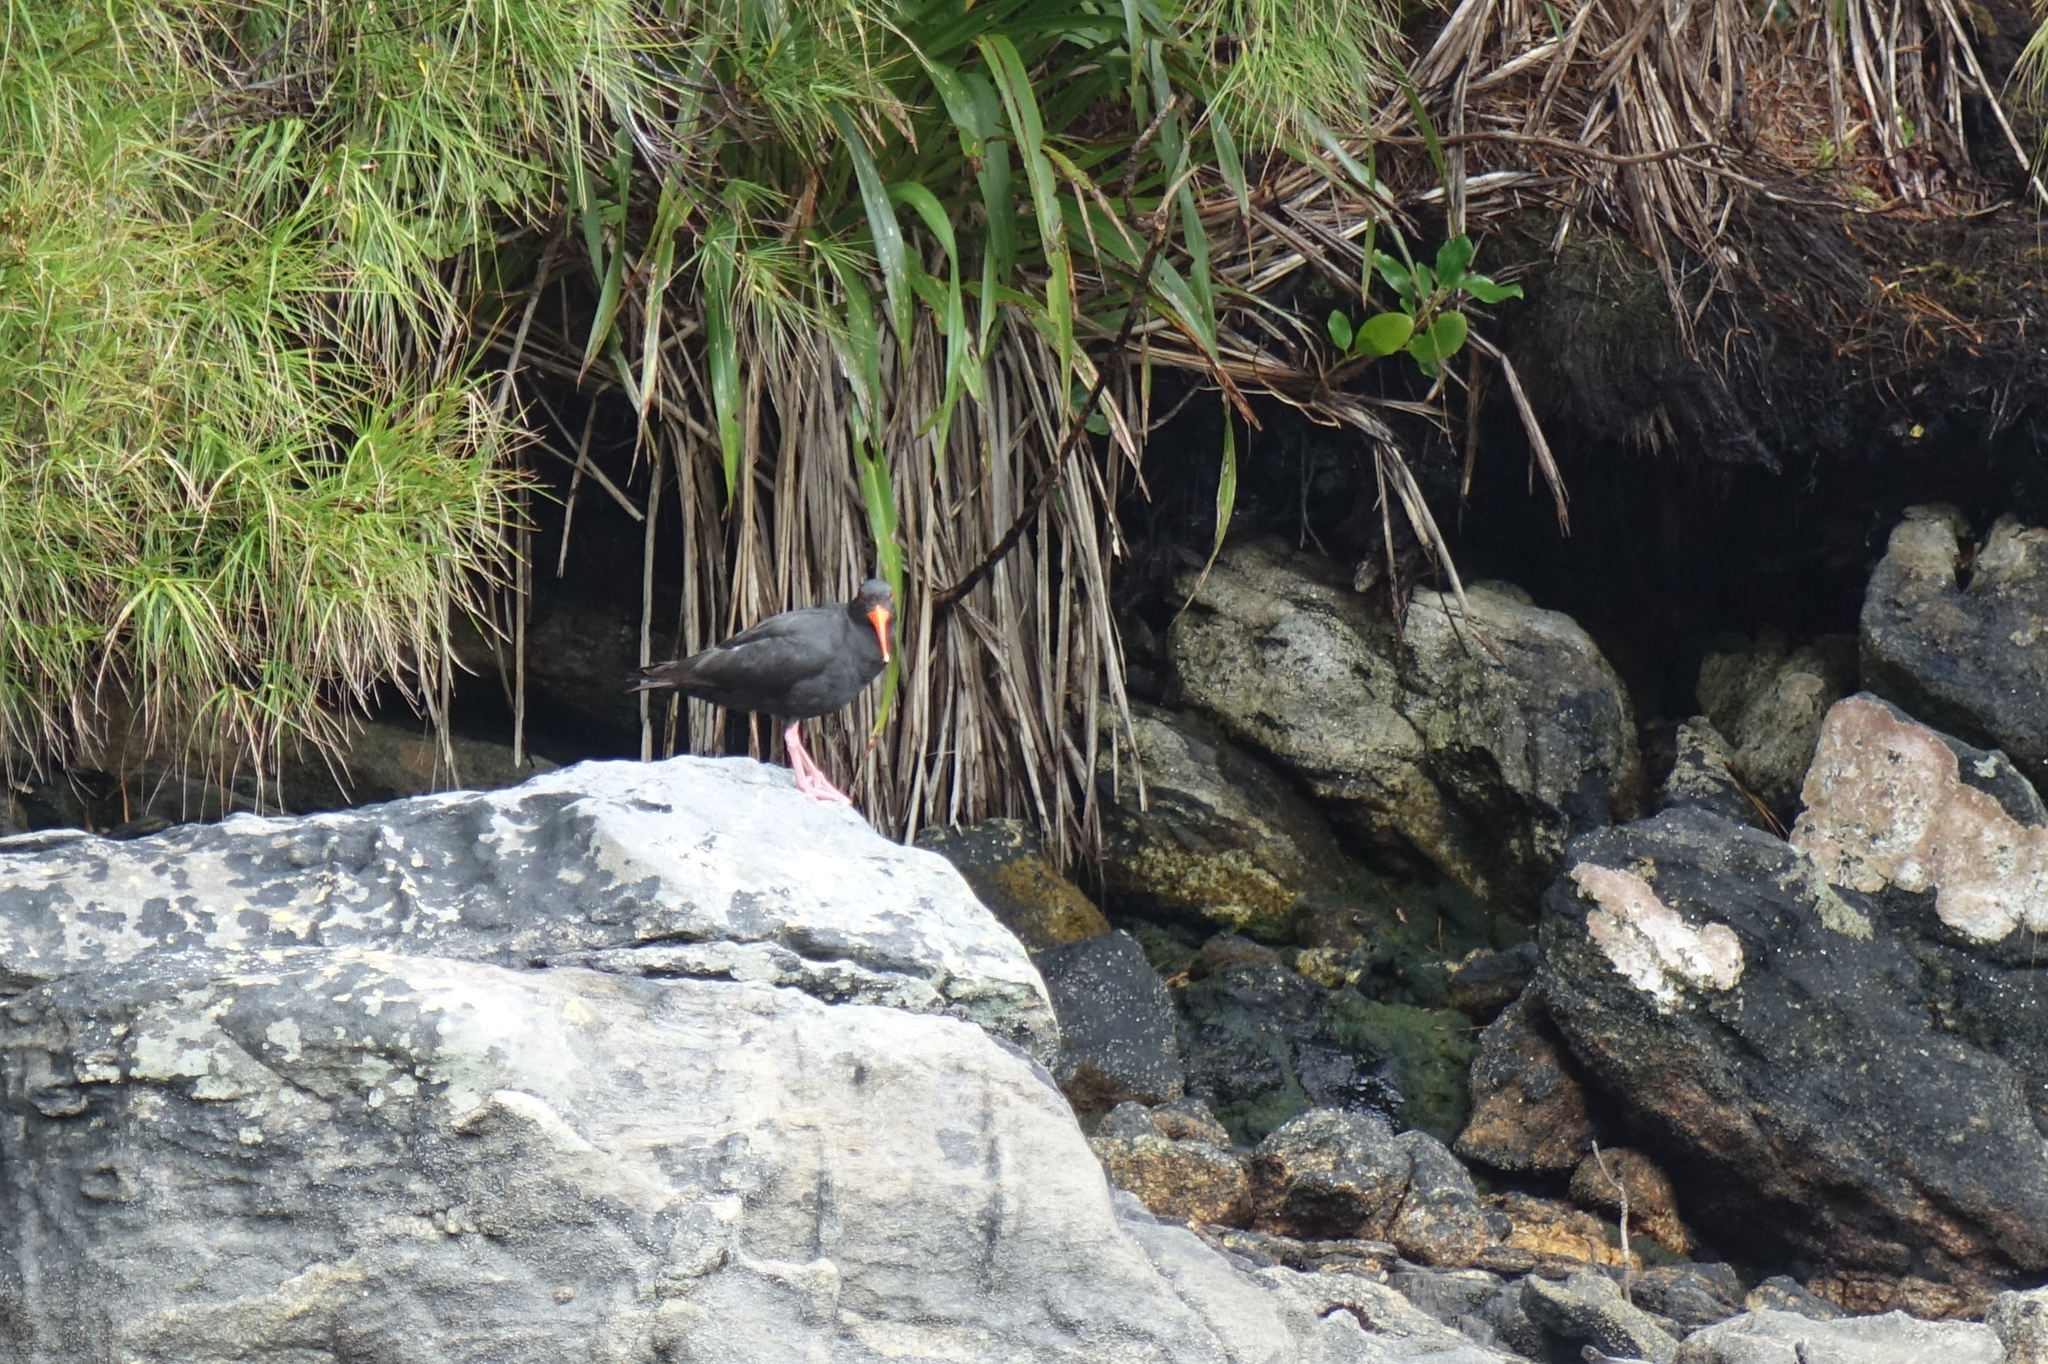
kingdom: Animalia
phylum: Chordata
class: Aves
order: Charadriiformes
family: Haematopodidae
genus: Haematopus
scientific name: Haematopus unicolor
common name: Variable oystercatcher
